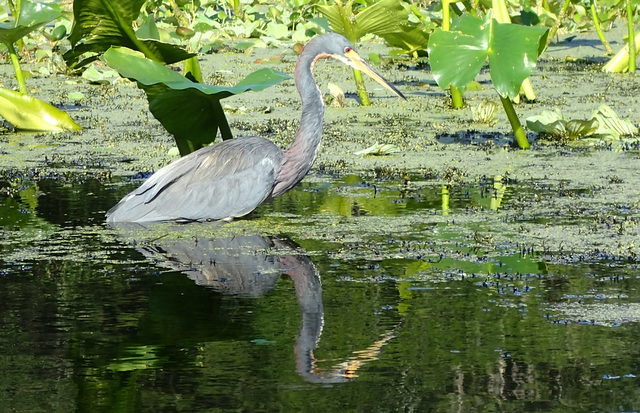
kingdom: Animalia
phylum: Chordata
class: Aves
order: Pelecaniformes
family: Ardeidae
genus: Egretta
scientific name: Egretta tricolor
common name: Tricolored heron
